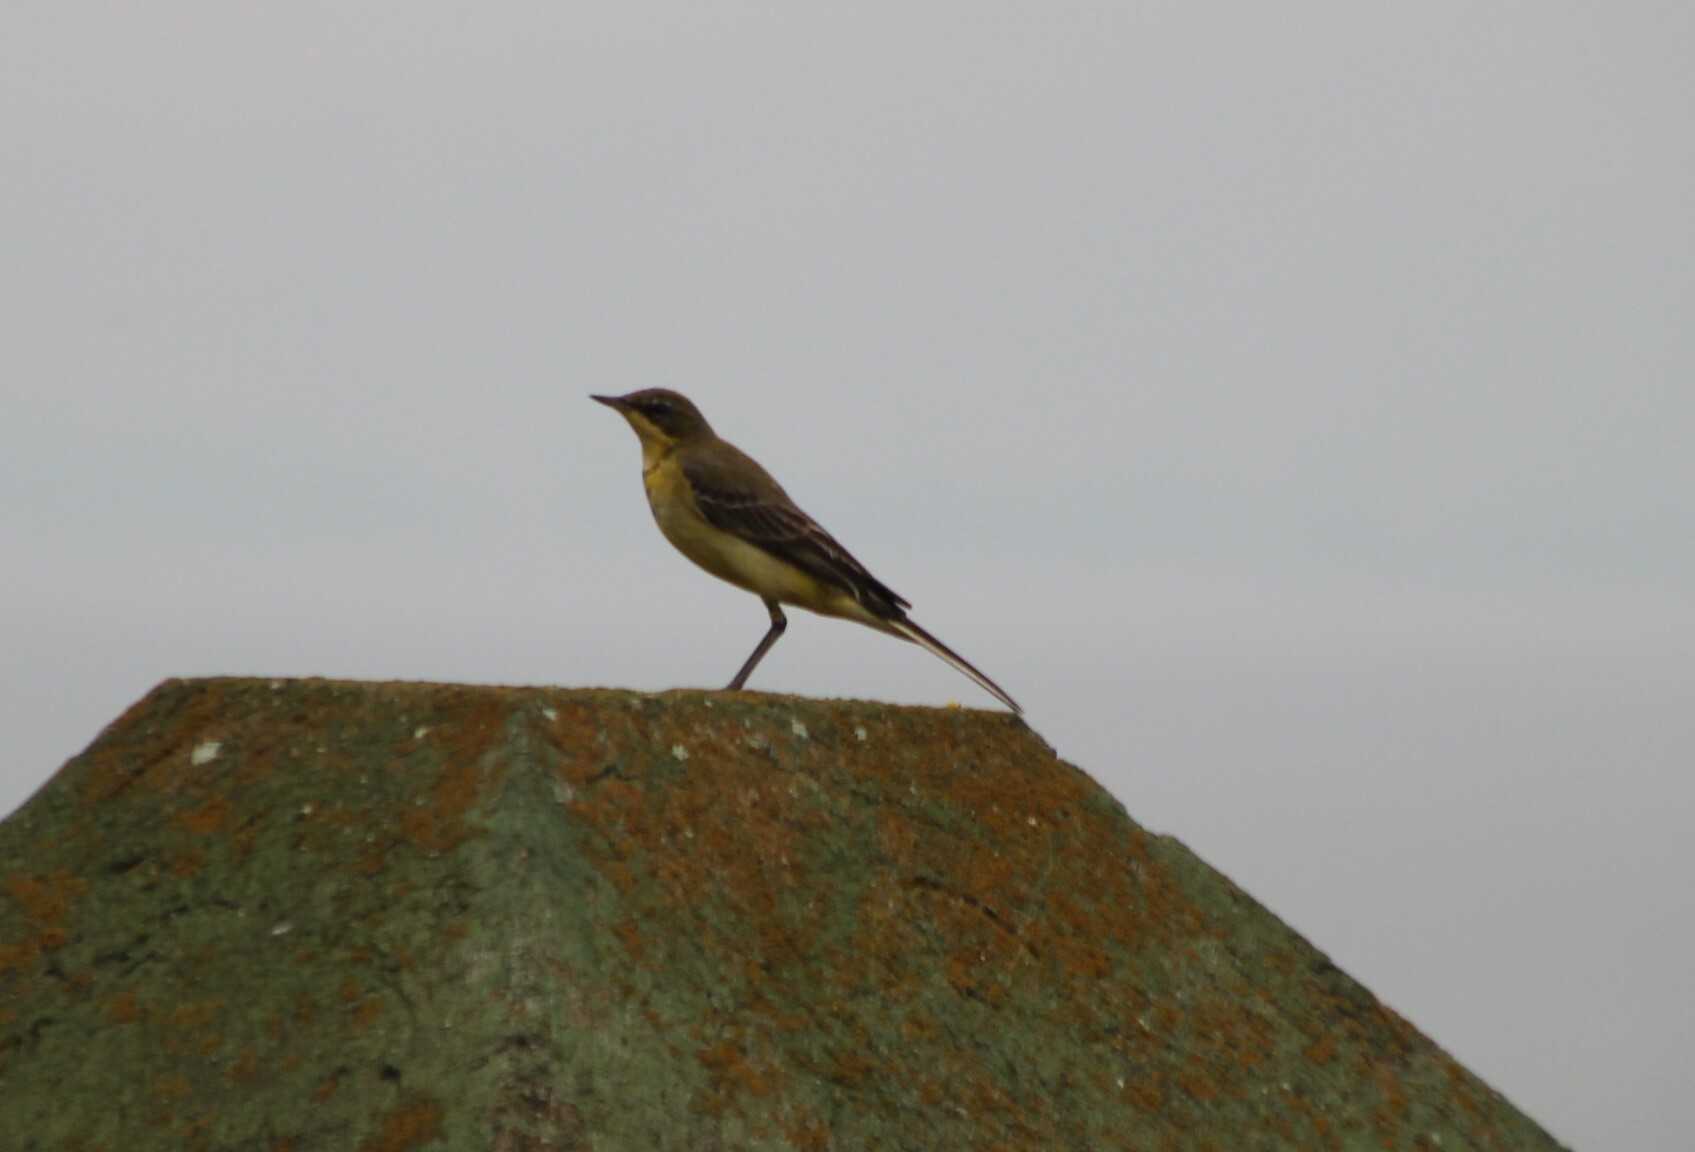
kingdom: Animalia
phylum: Chordata
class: Aves
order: Passeriformes
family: Motacillidae
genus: Motacilla
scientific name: Motacilla flava
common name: Western yellow wagtail
